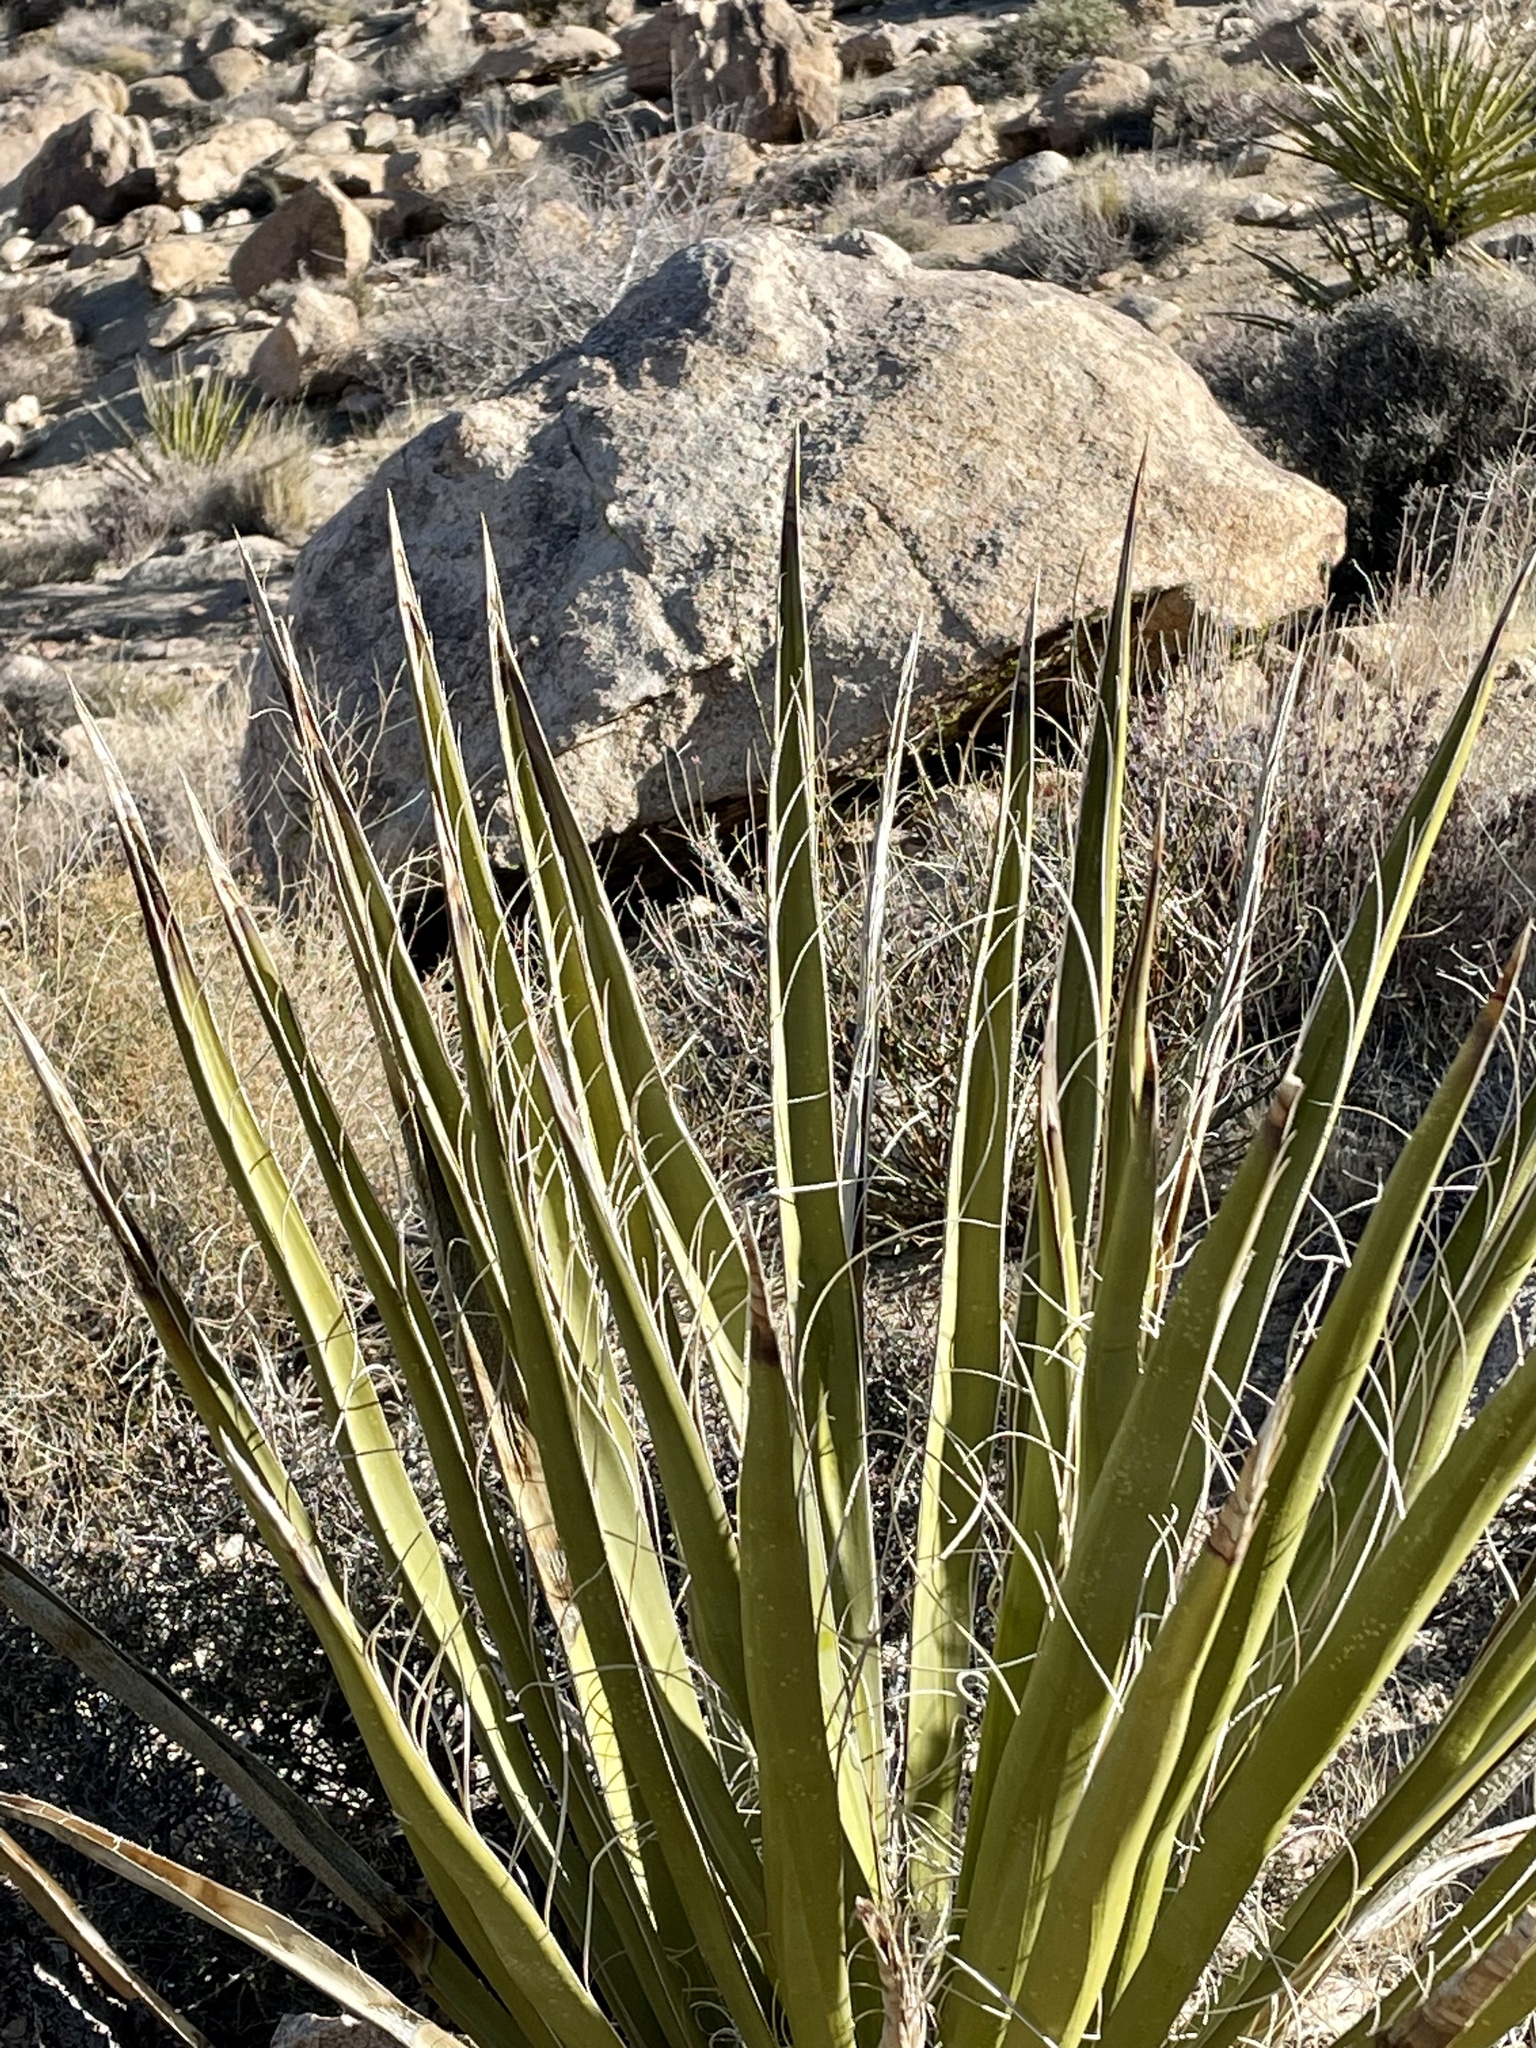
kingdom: Plantae
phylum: Tracheophyta
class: Liliopsida
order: Asparagales
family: Asparagaceae
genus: Yucca
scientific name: Yucca schidigera
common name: Mojave yucca
